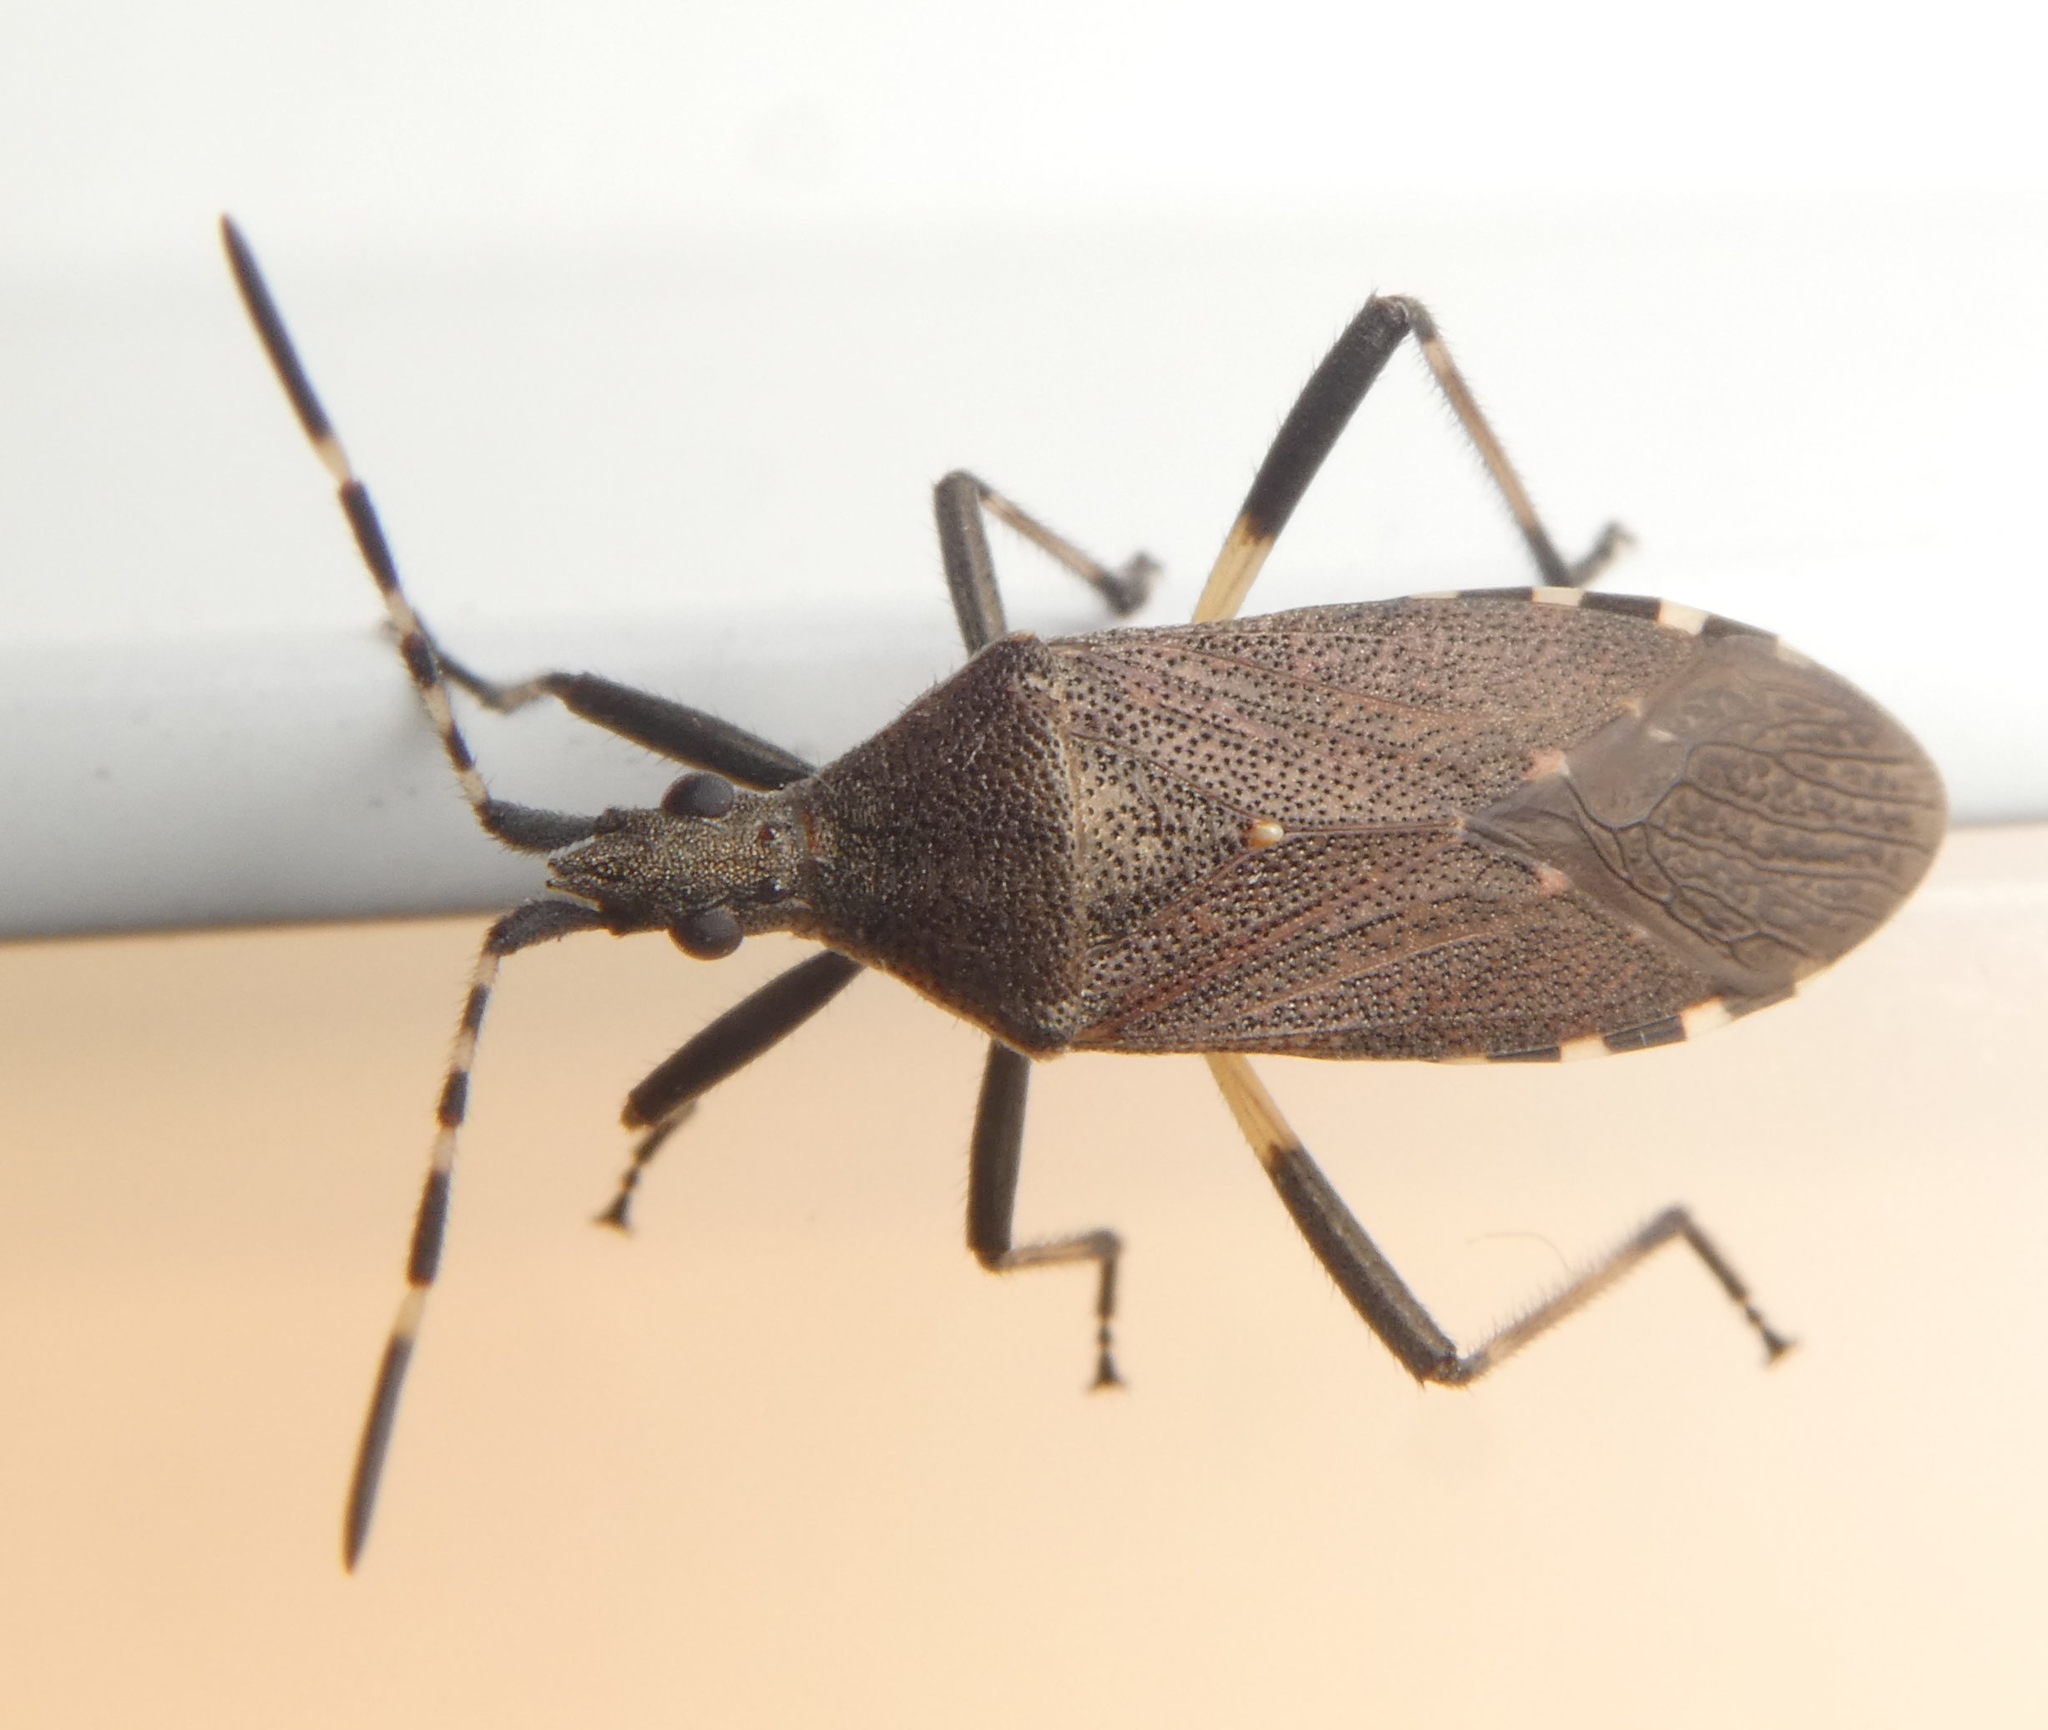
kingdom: Animalia
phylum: Arthropoda
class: Insecta
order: Hemiptera
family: Stenocephalidae
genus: Dicranocephalus
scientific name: Dicranocephalus agilis
